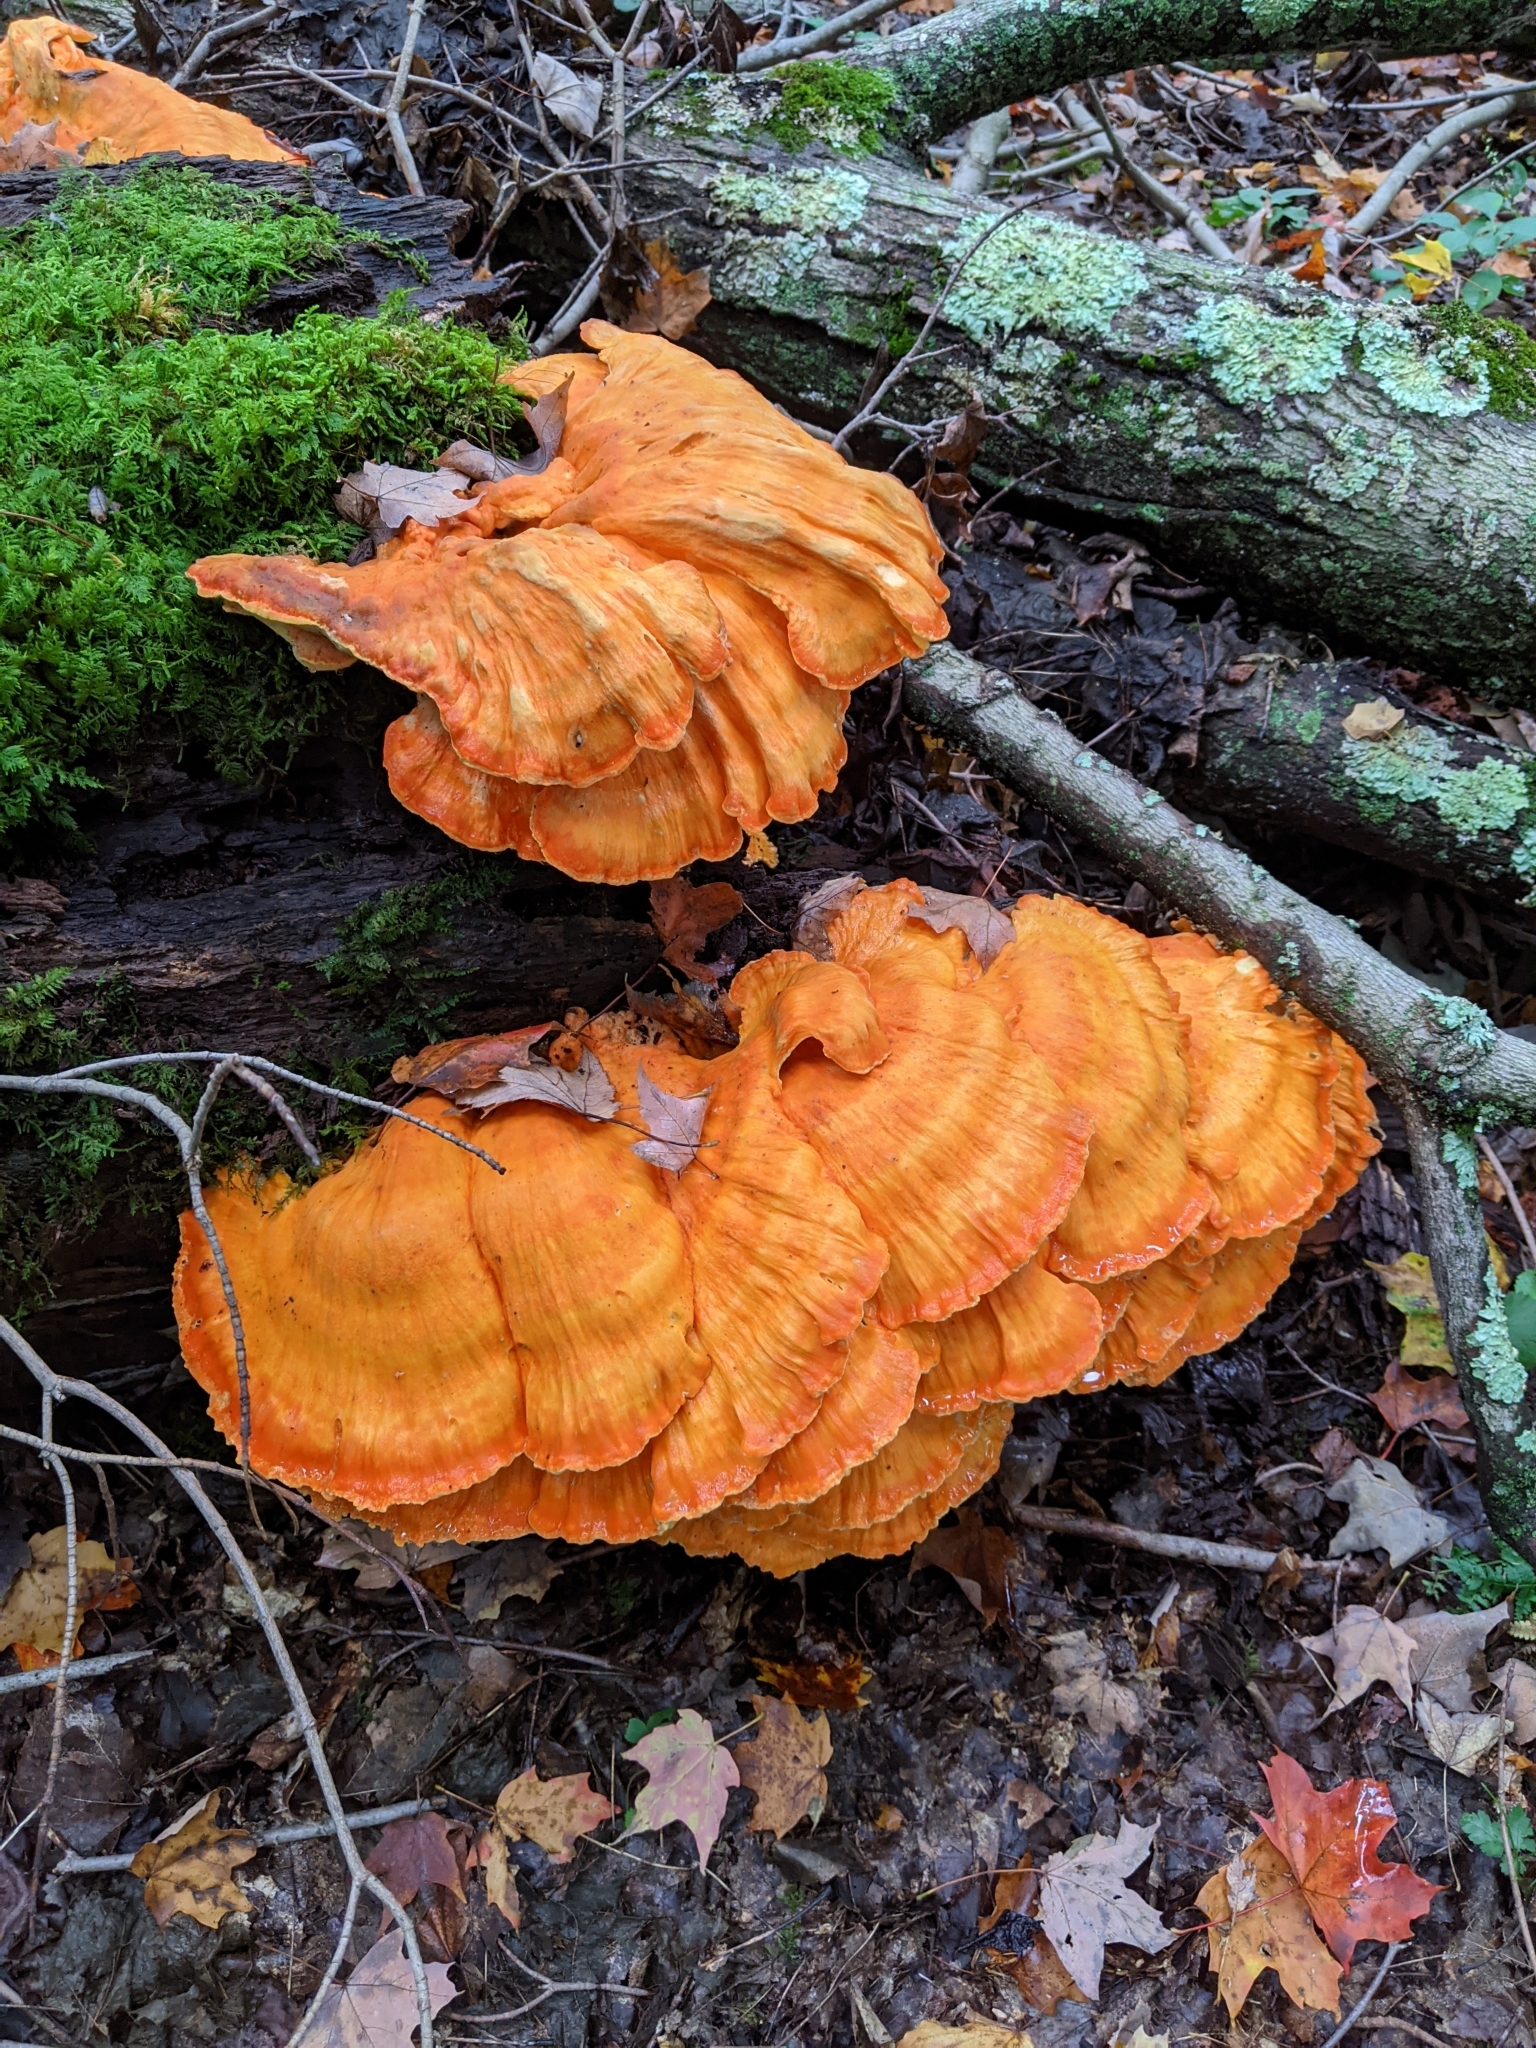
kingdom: Fungi
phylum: Basidiomycota
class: Agaricomycetes
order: Polyporales
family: Laetiporaceae
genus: Laetiporus
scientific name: Laetiporus sulphureus
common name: Chicken of the woods
